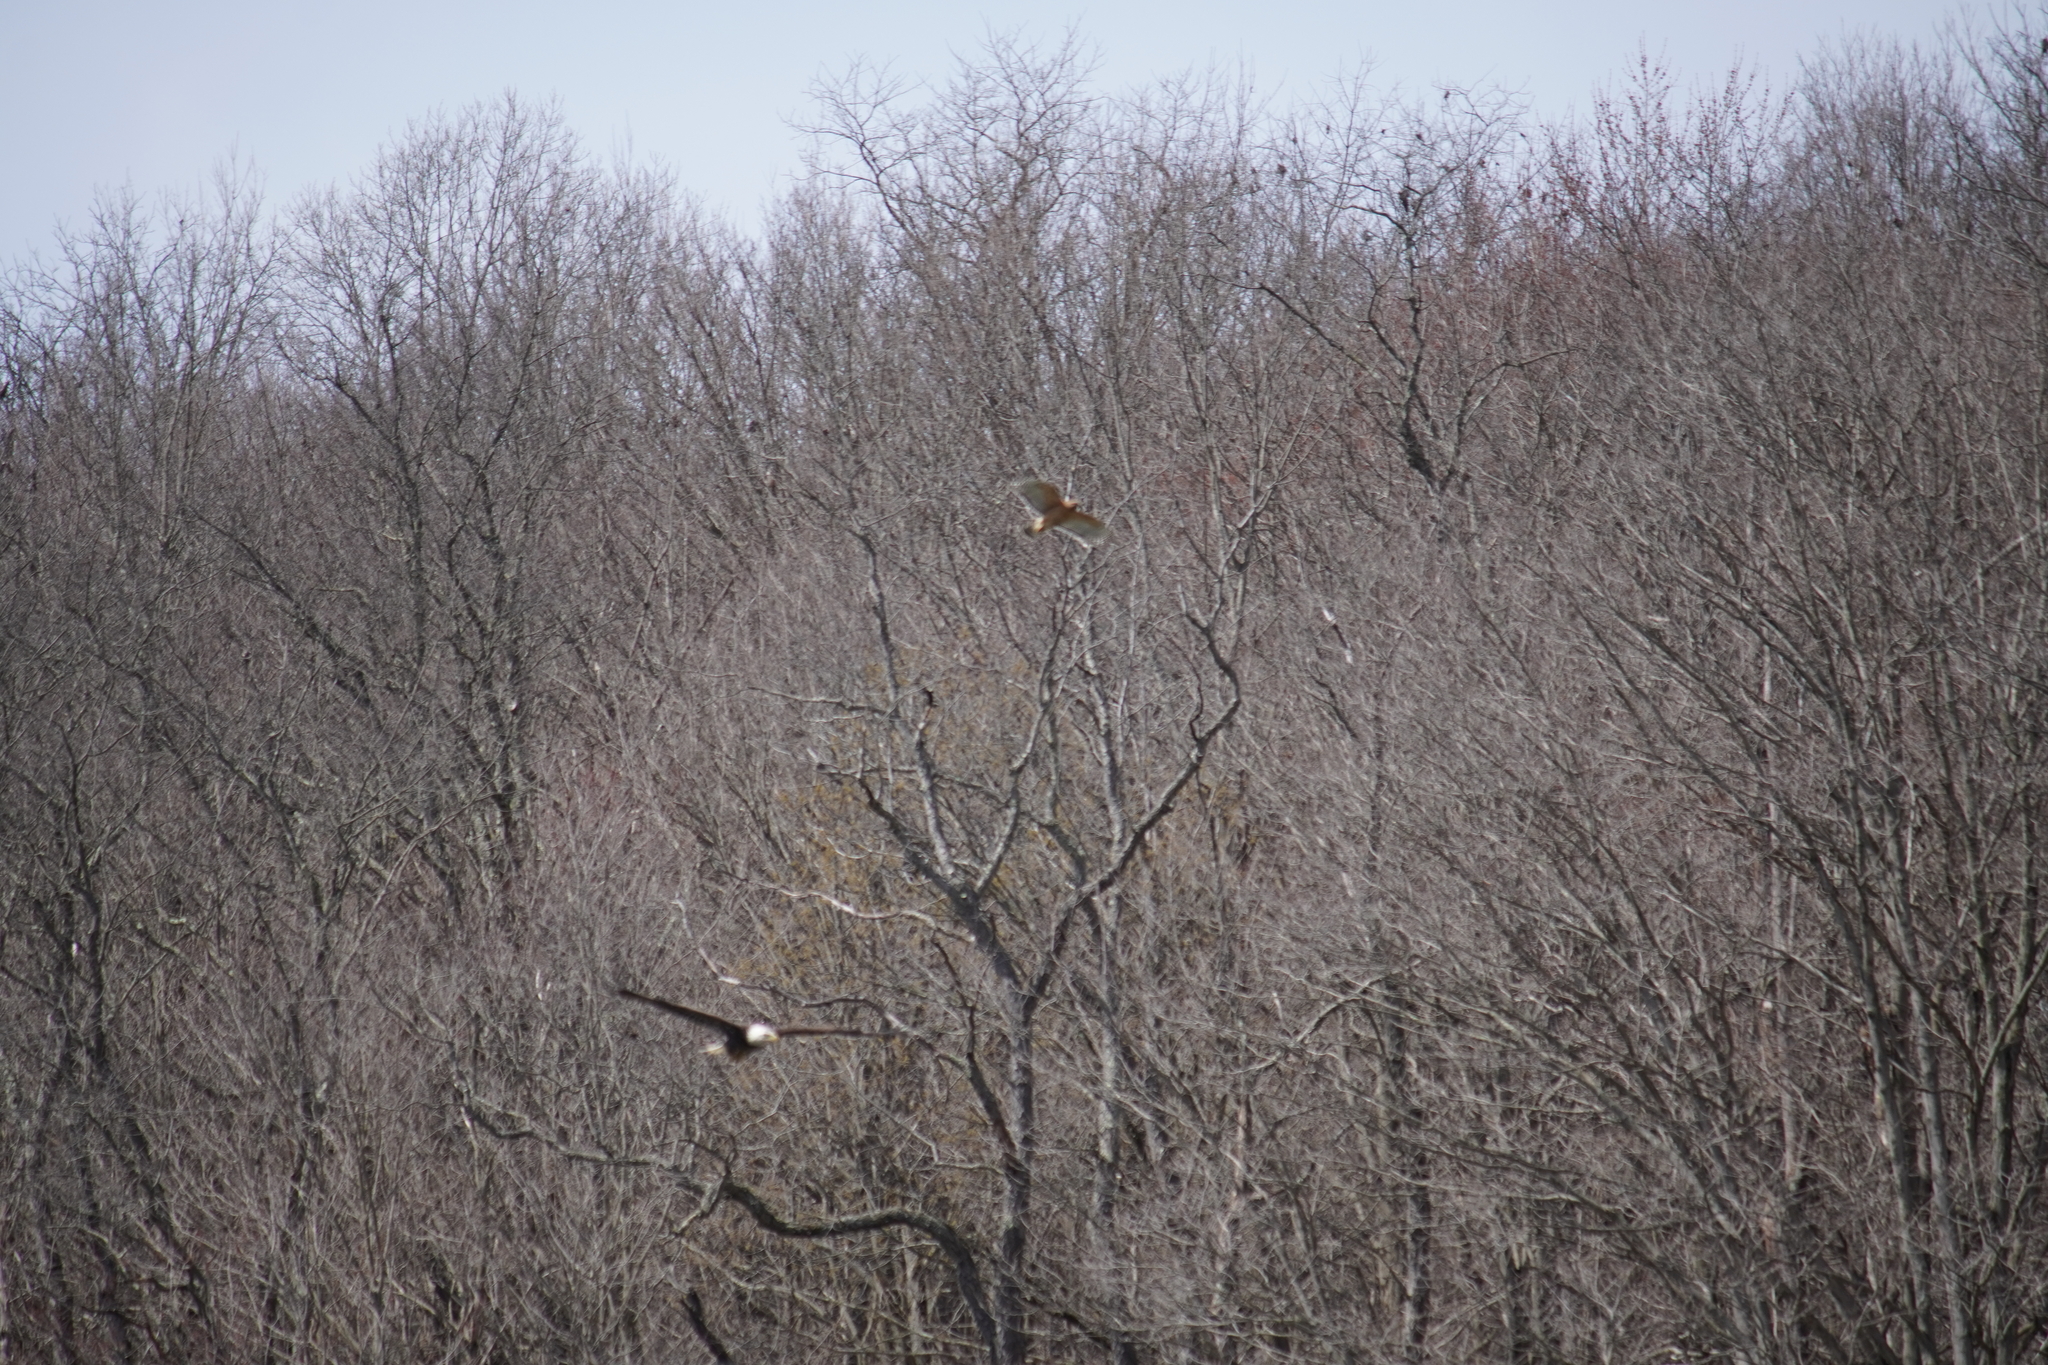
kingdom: Animalia
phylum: Chordata
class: Aves
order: Accipitriformes
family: Accipitridae
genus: Buteo
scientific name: Buteo lineatus
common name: Red-shouldered hawk
